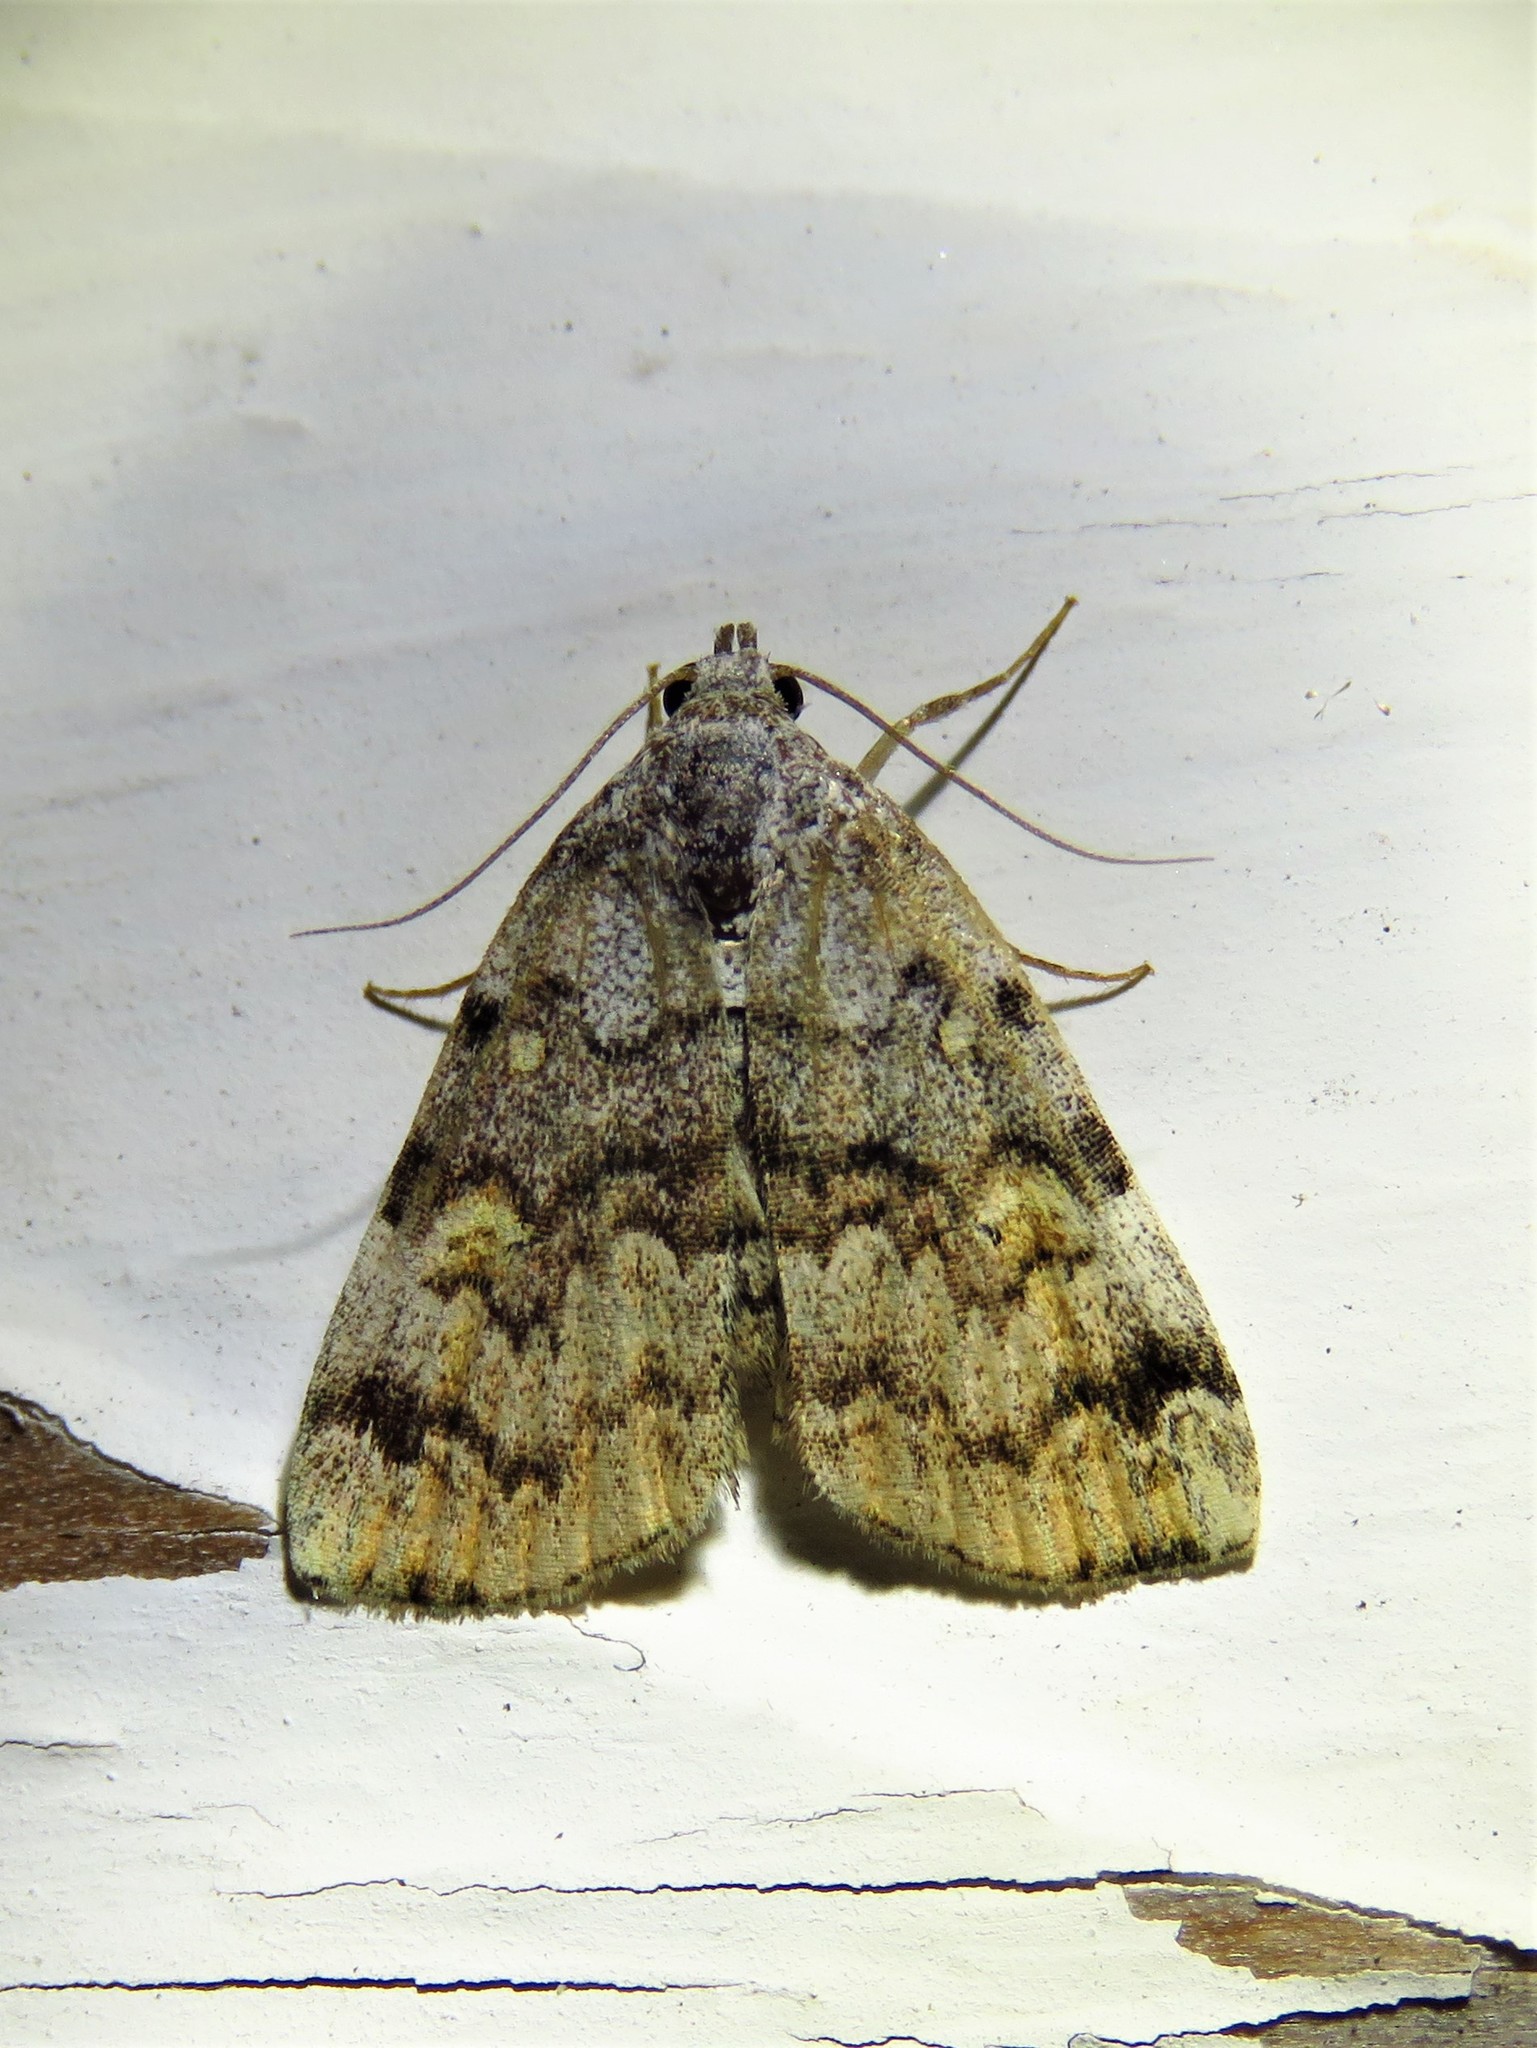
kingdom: Animalia
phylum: Arthropoda
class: Insecta
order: Lepidoptera
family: Erebidae
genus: Idia
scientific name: Idia americalis
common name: American idia moth
